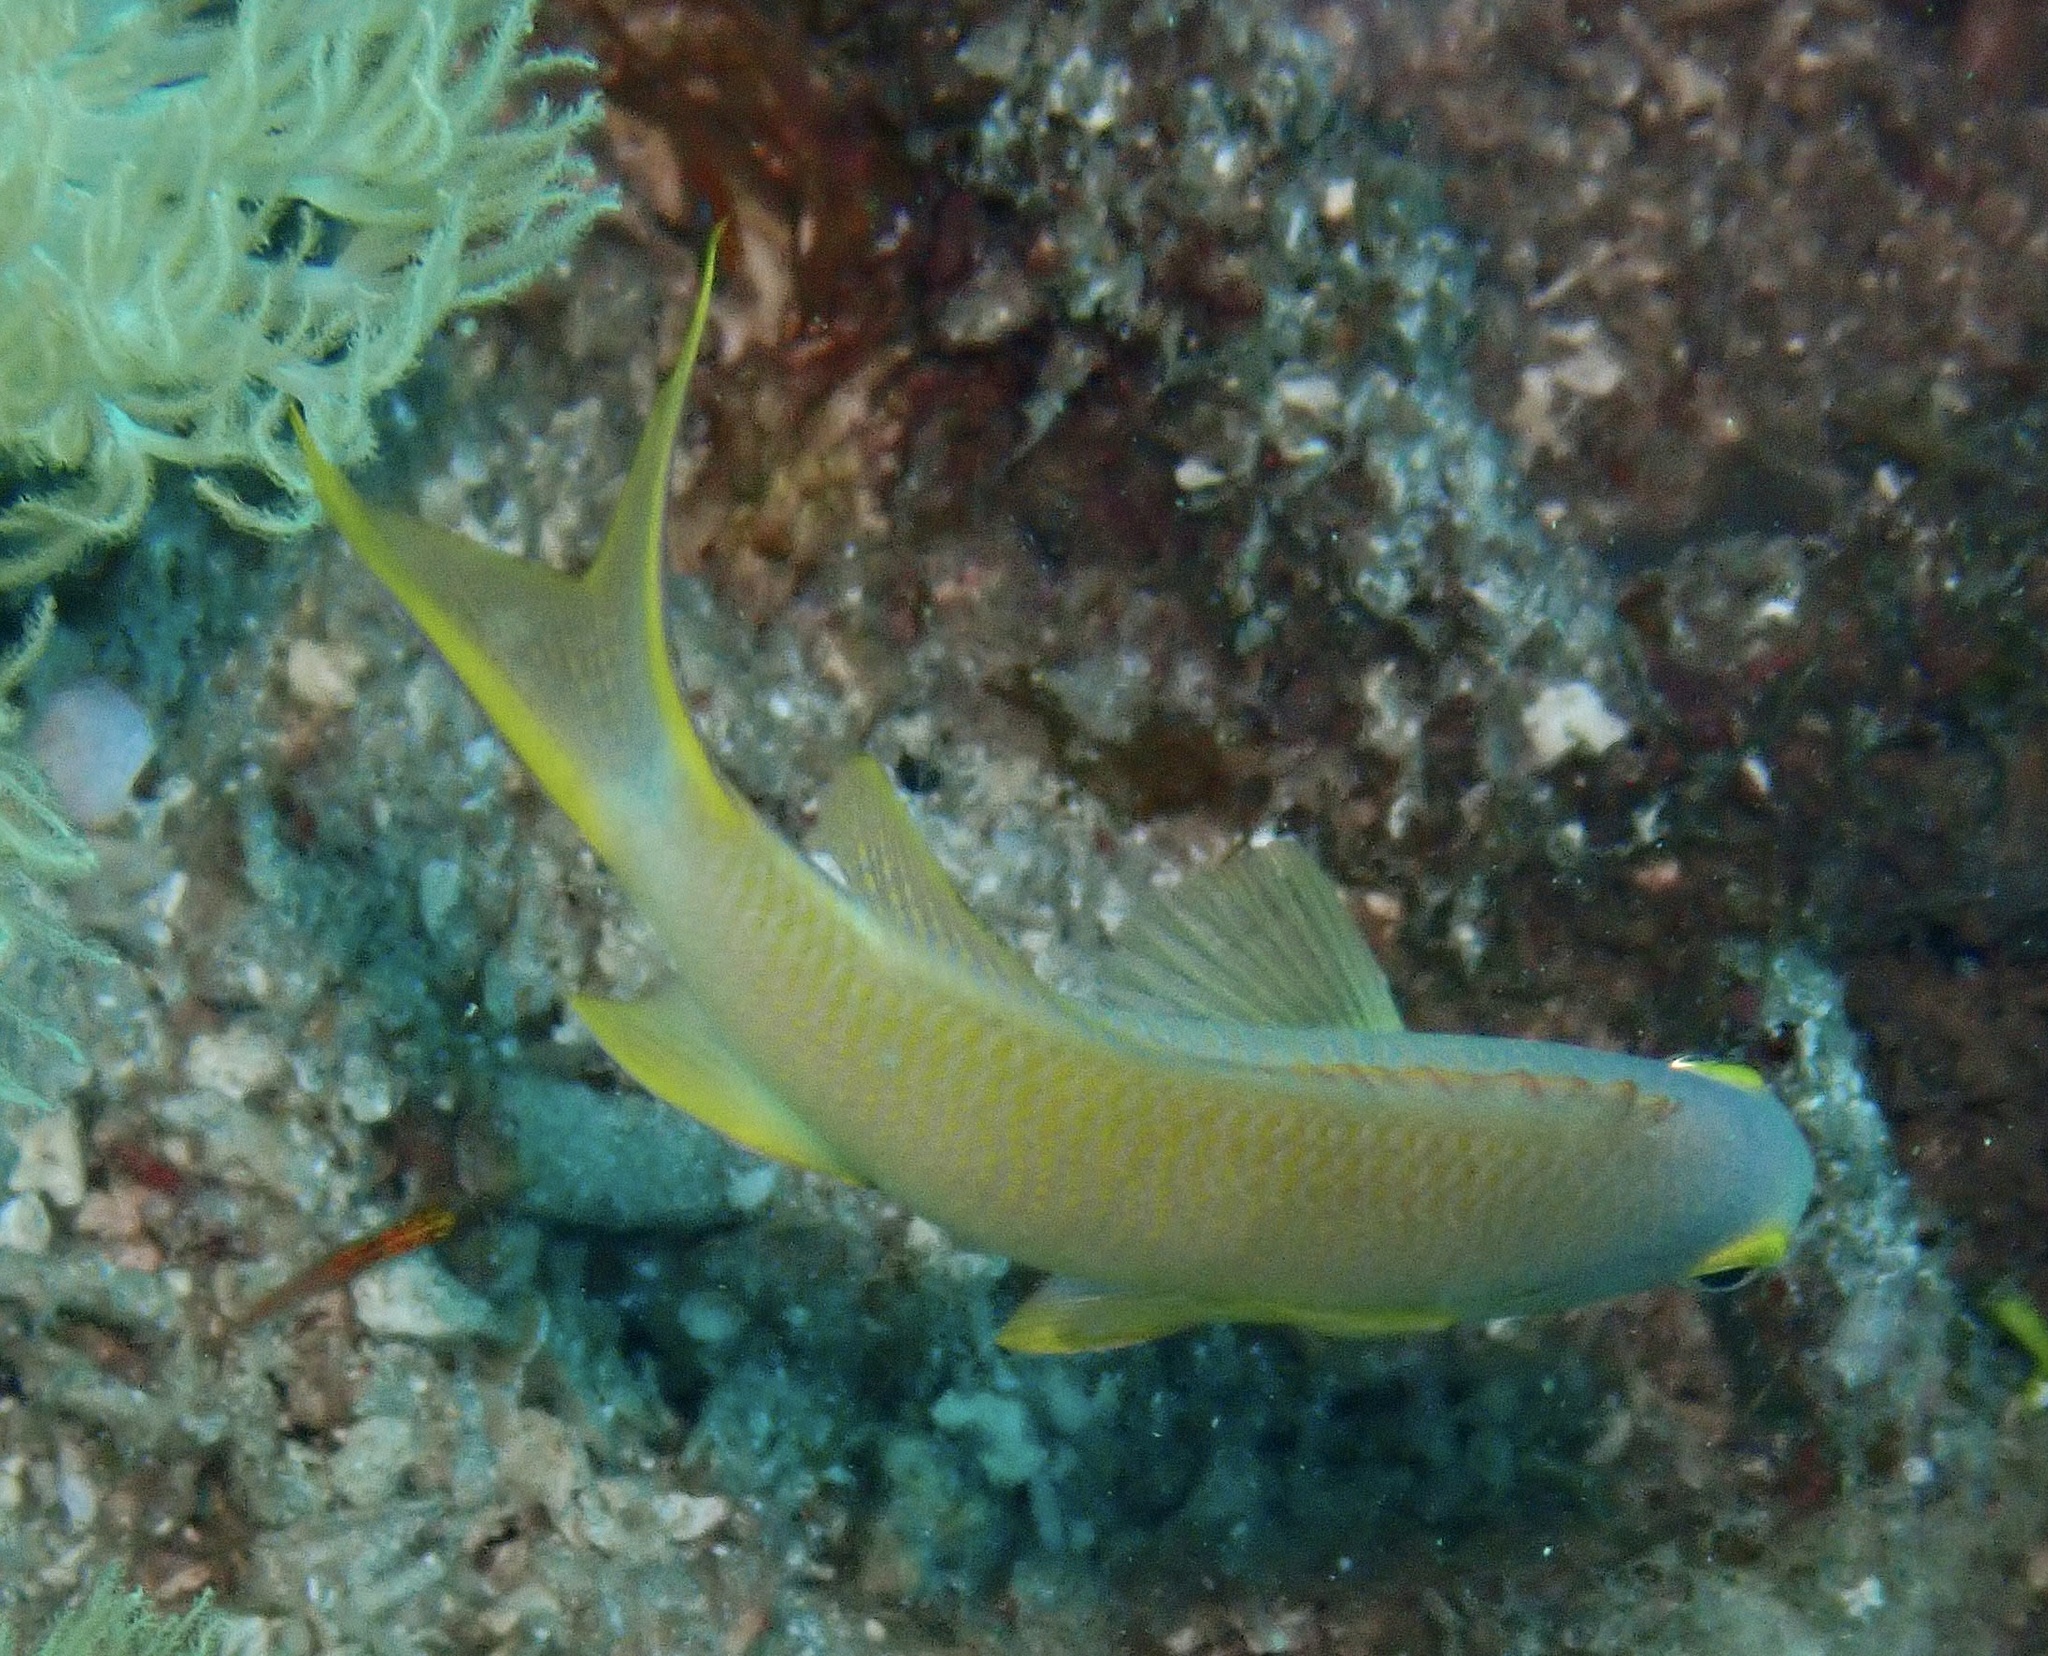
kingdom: Animalia
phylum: Chordata
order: Perciformes
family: Serranidae
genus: Pseudanthias
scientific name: Pseudanthias huchtii
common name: Pacific basslet
